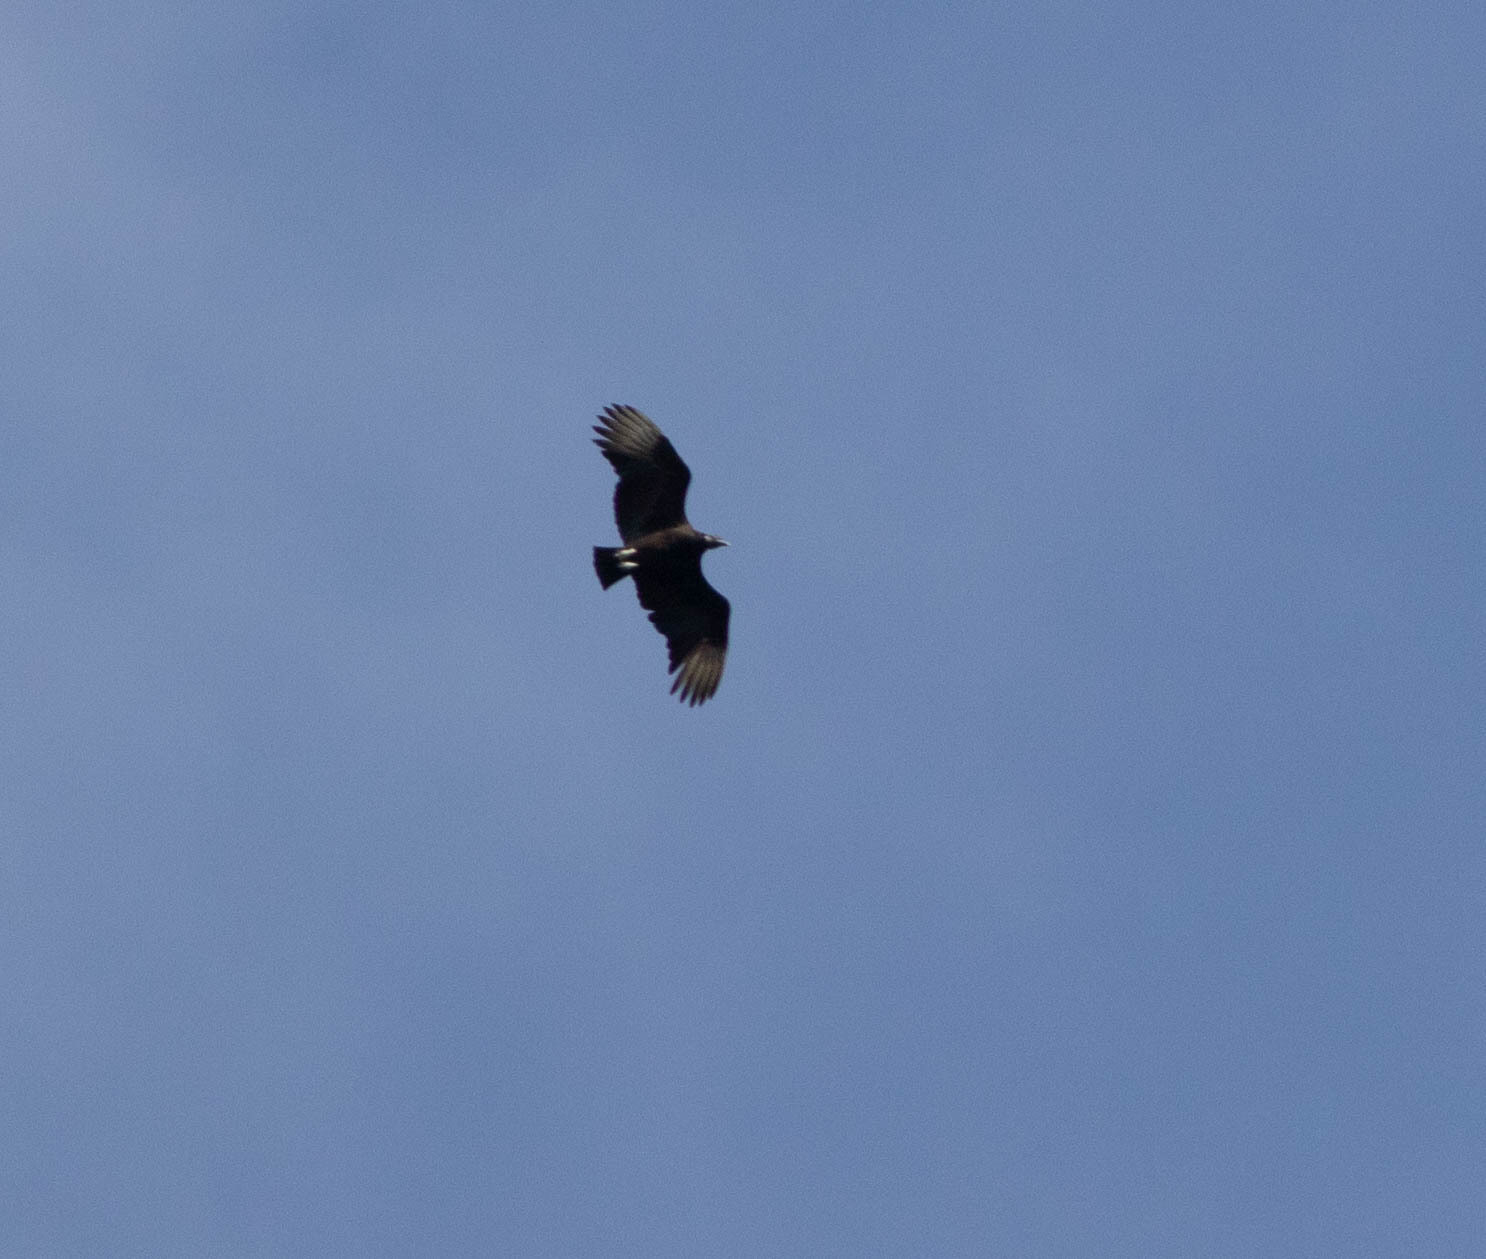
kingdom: Animalia
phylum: Chordata
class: Aves
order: Accipitriformes
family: Cathartidae
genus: Coragyps
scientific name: Coragyps atratus
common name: Black vulture
